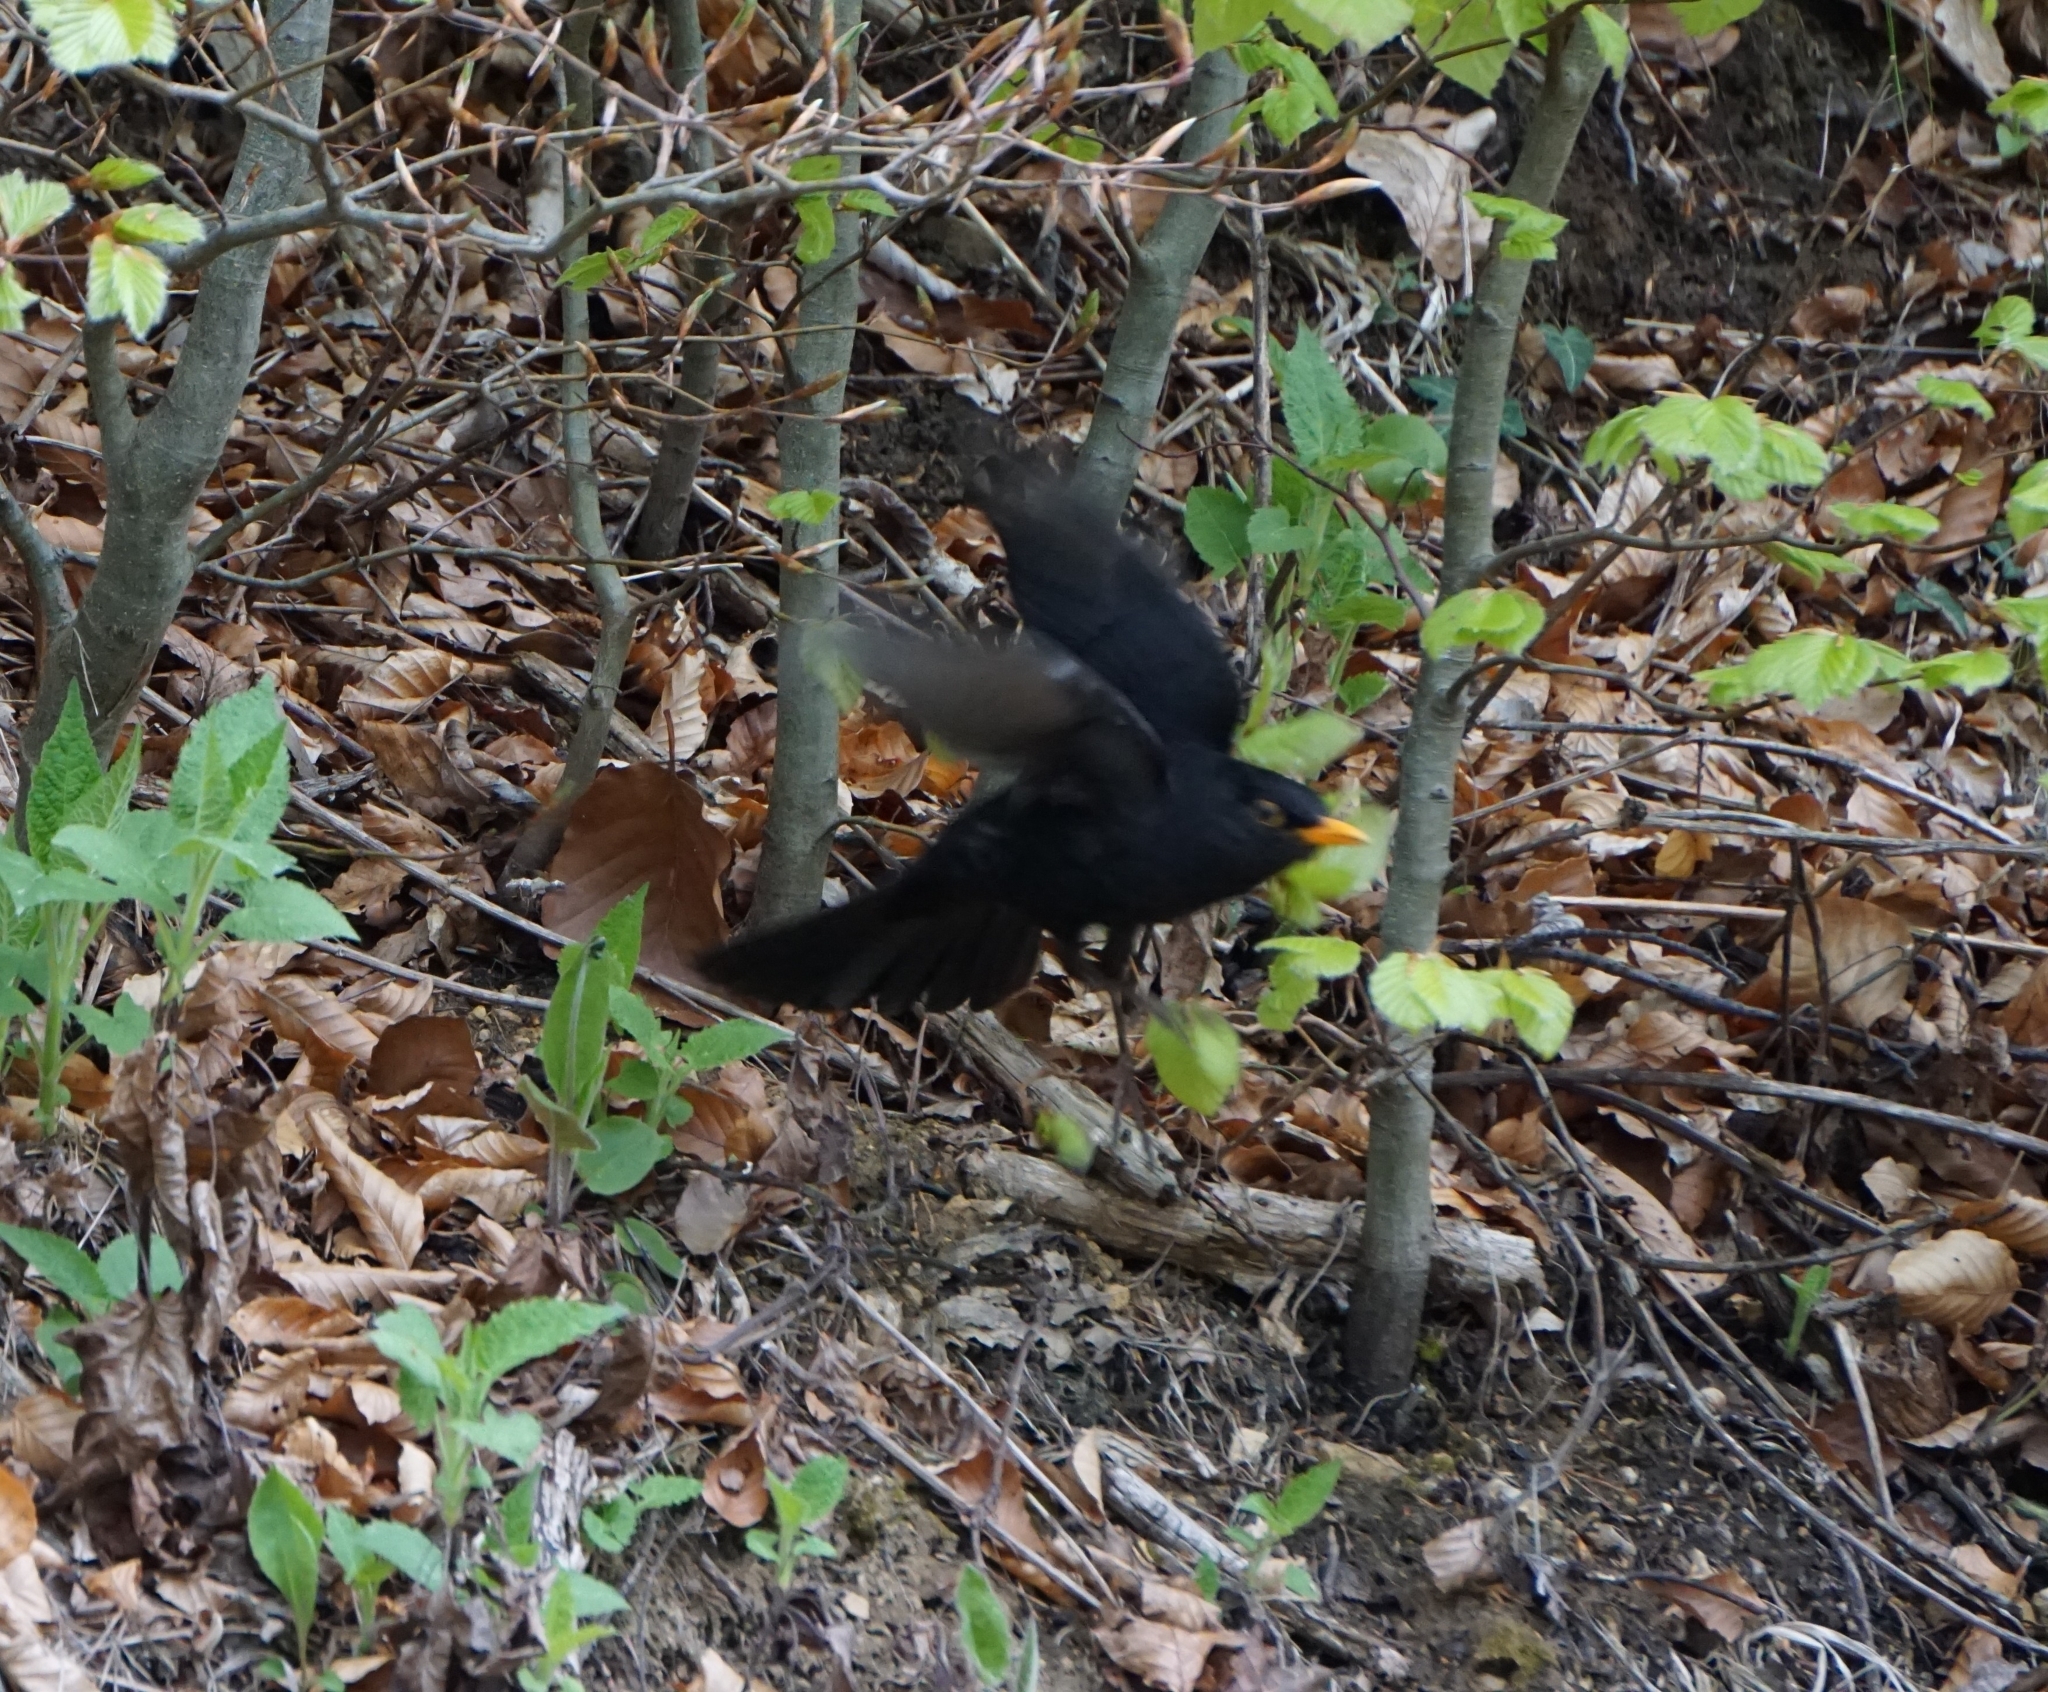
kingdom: Animalia
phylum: Chordata
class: Aves
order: Passeriformes
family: Turdidae
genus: Turdus
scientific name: Turdus merula
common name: Common blackbird
